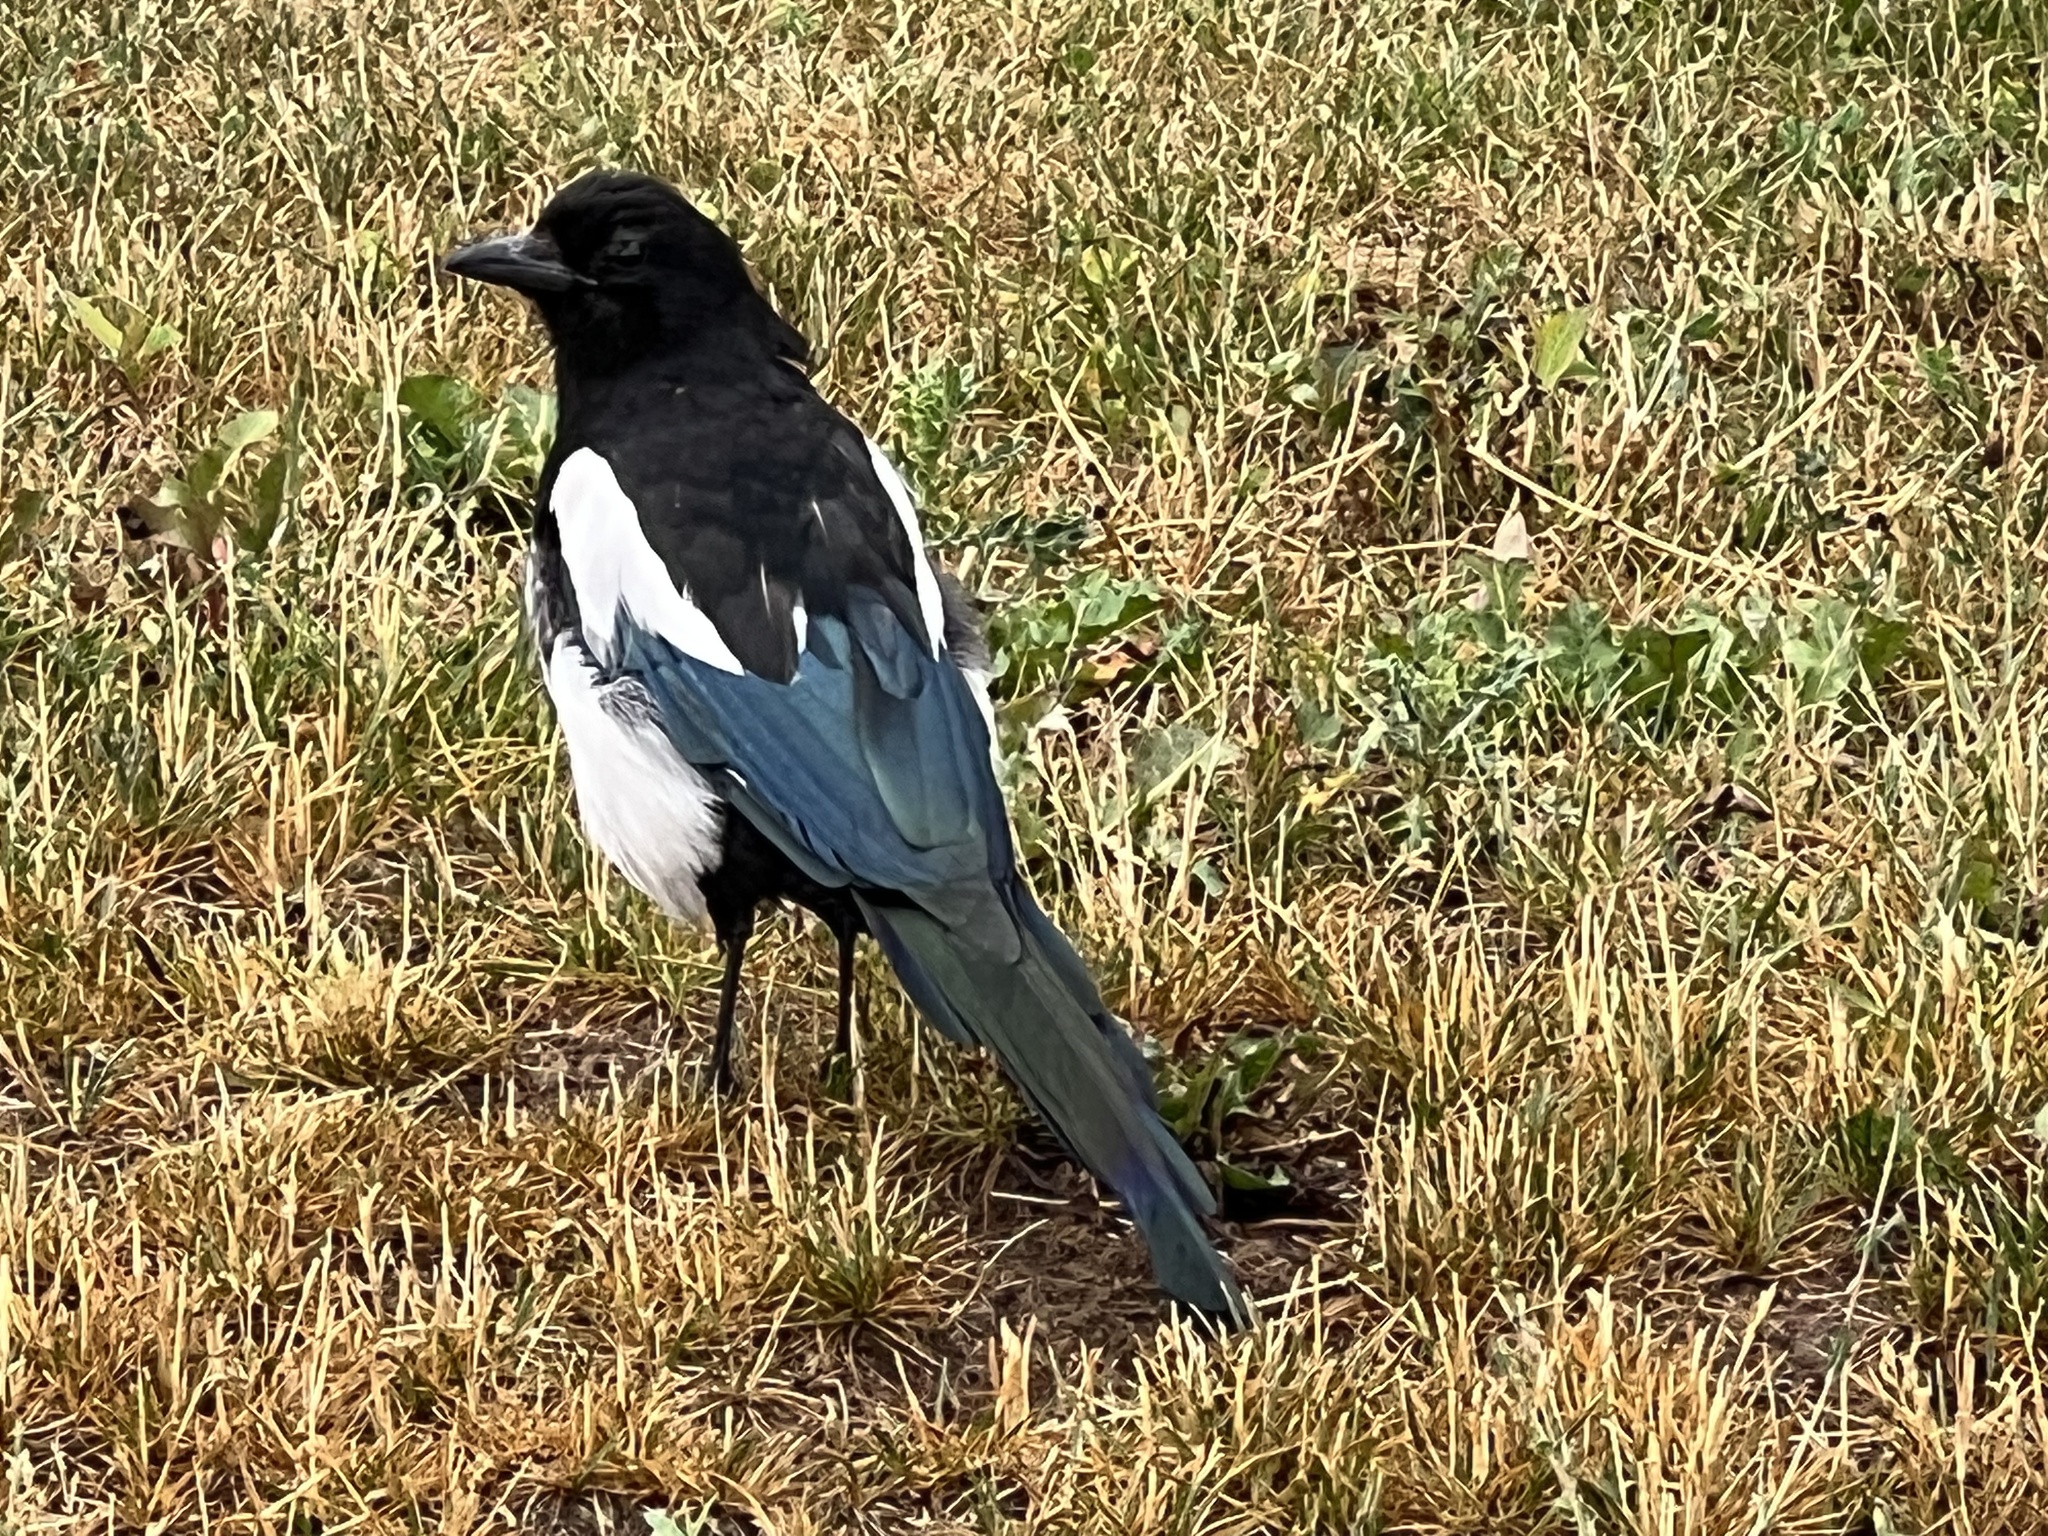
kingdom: Animalia
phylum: Chordata
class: Aves
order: Passeriformes
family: Corvidae
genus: Pica
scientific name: Pica hudsonia
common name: Black-billed magpie
